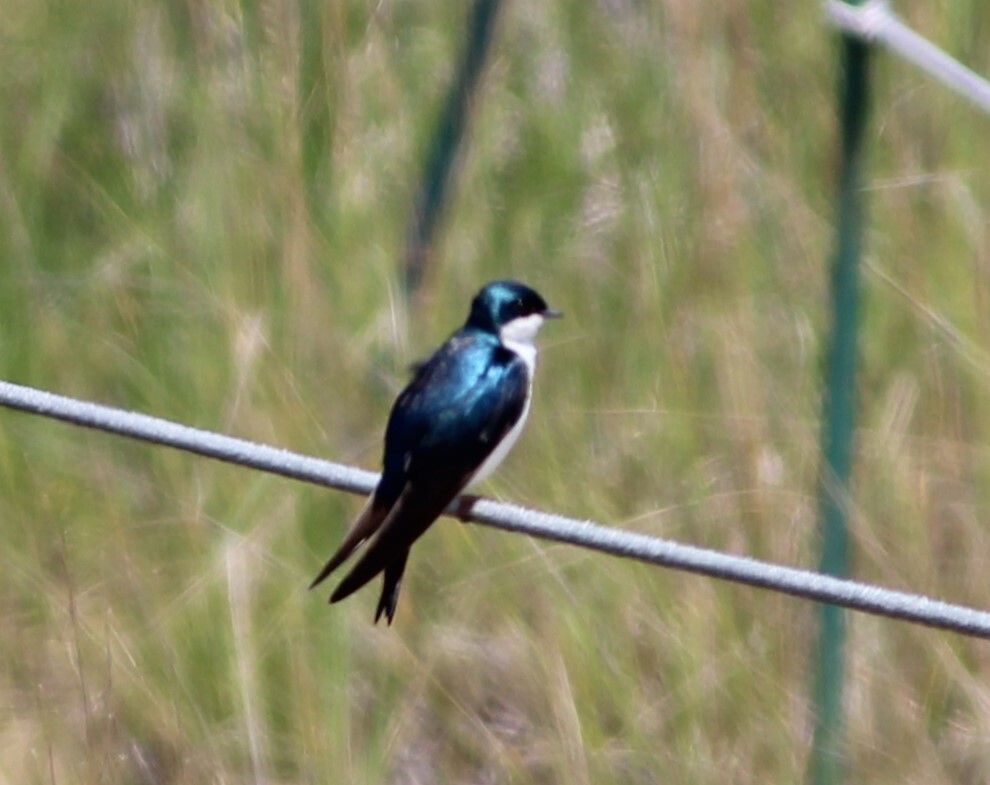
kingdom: Animalia
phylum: Chordata
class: Aves
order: Passeriformes
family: Hirundinidae
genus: Tachycineta
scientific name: Tachycineta bicolor
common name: Tree swallow
